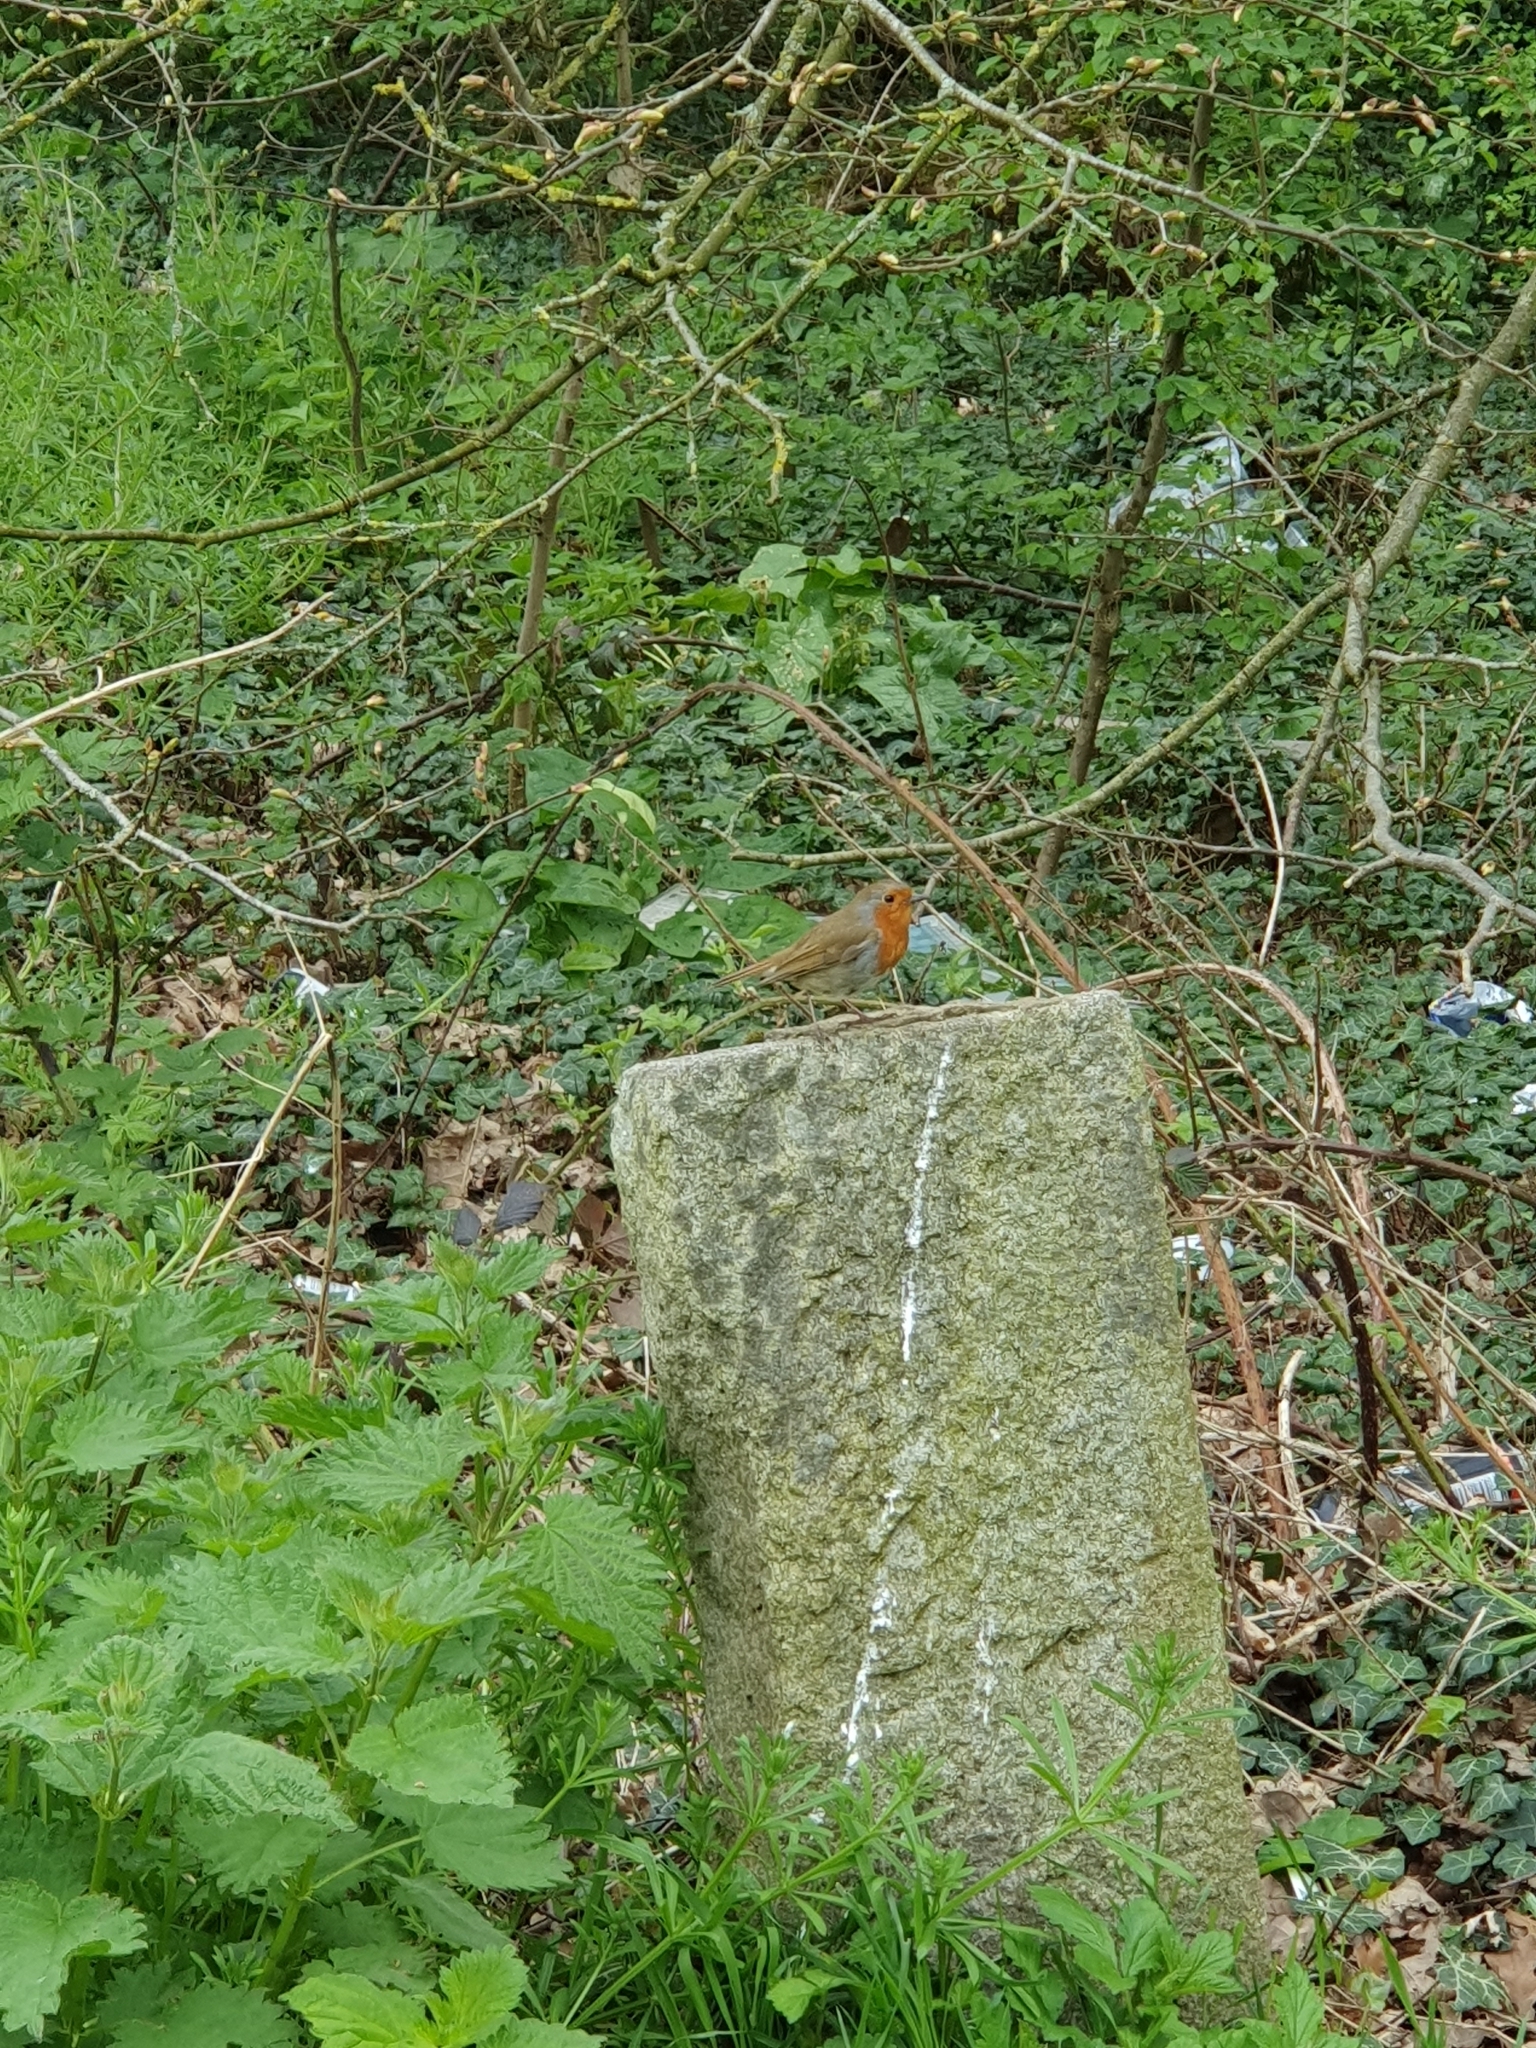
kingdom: Animalia
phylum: Chordata
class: Aves
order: Passeriformes
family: Muscicapidae
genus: Erithacus
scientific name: Erithacus rubecula
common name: European robin
